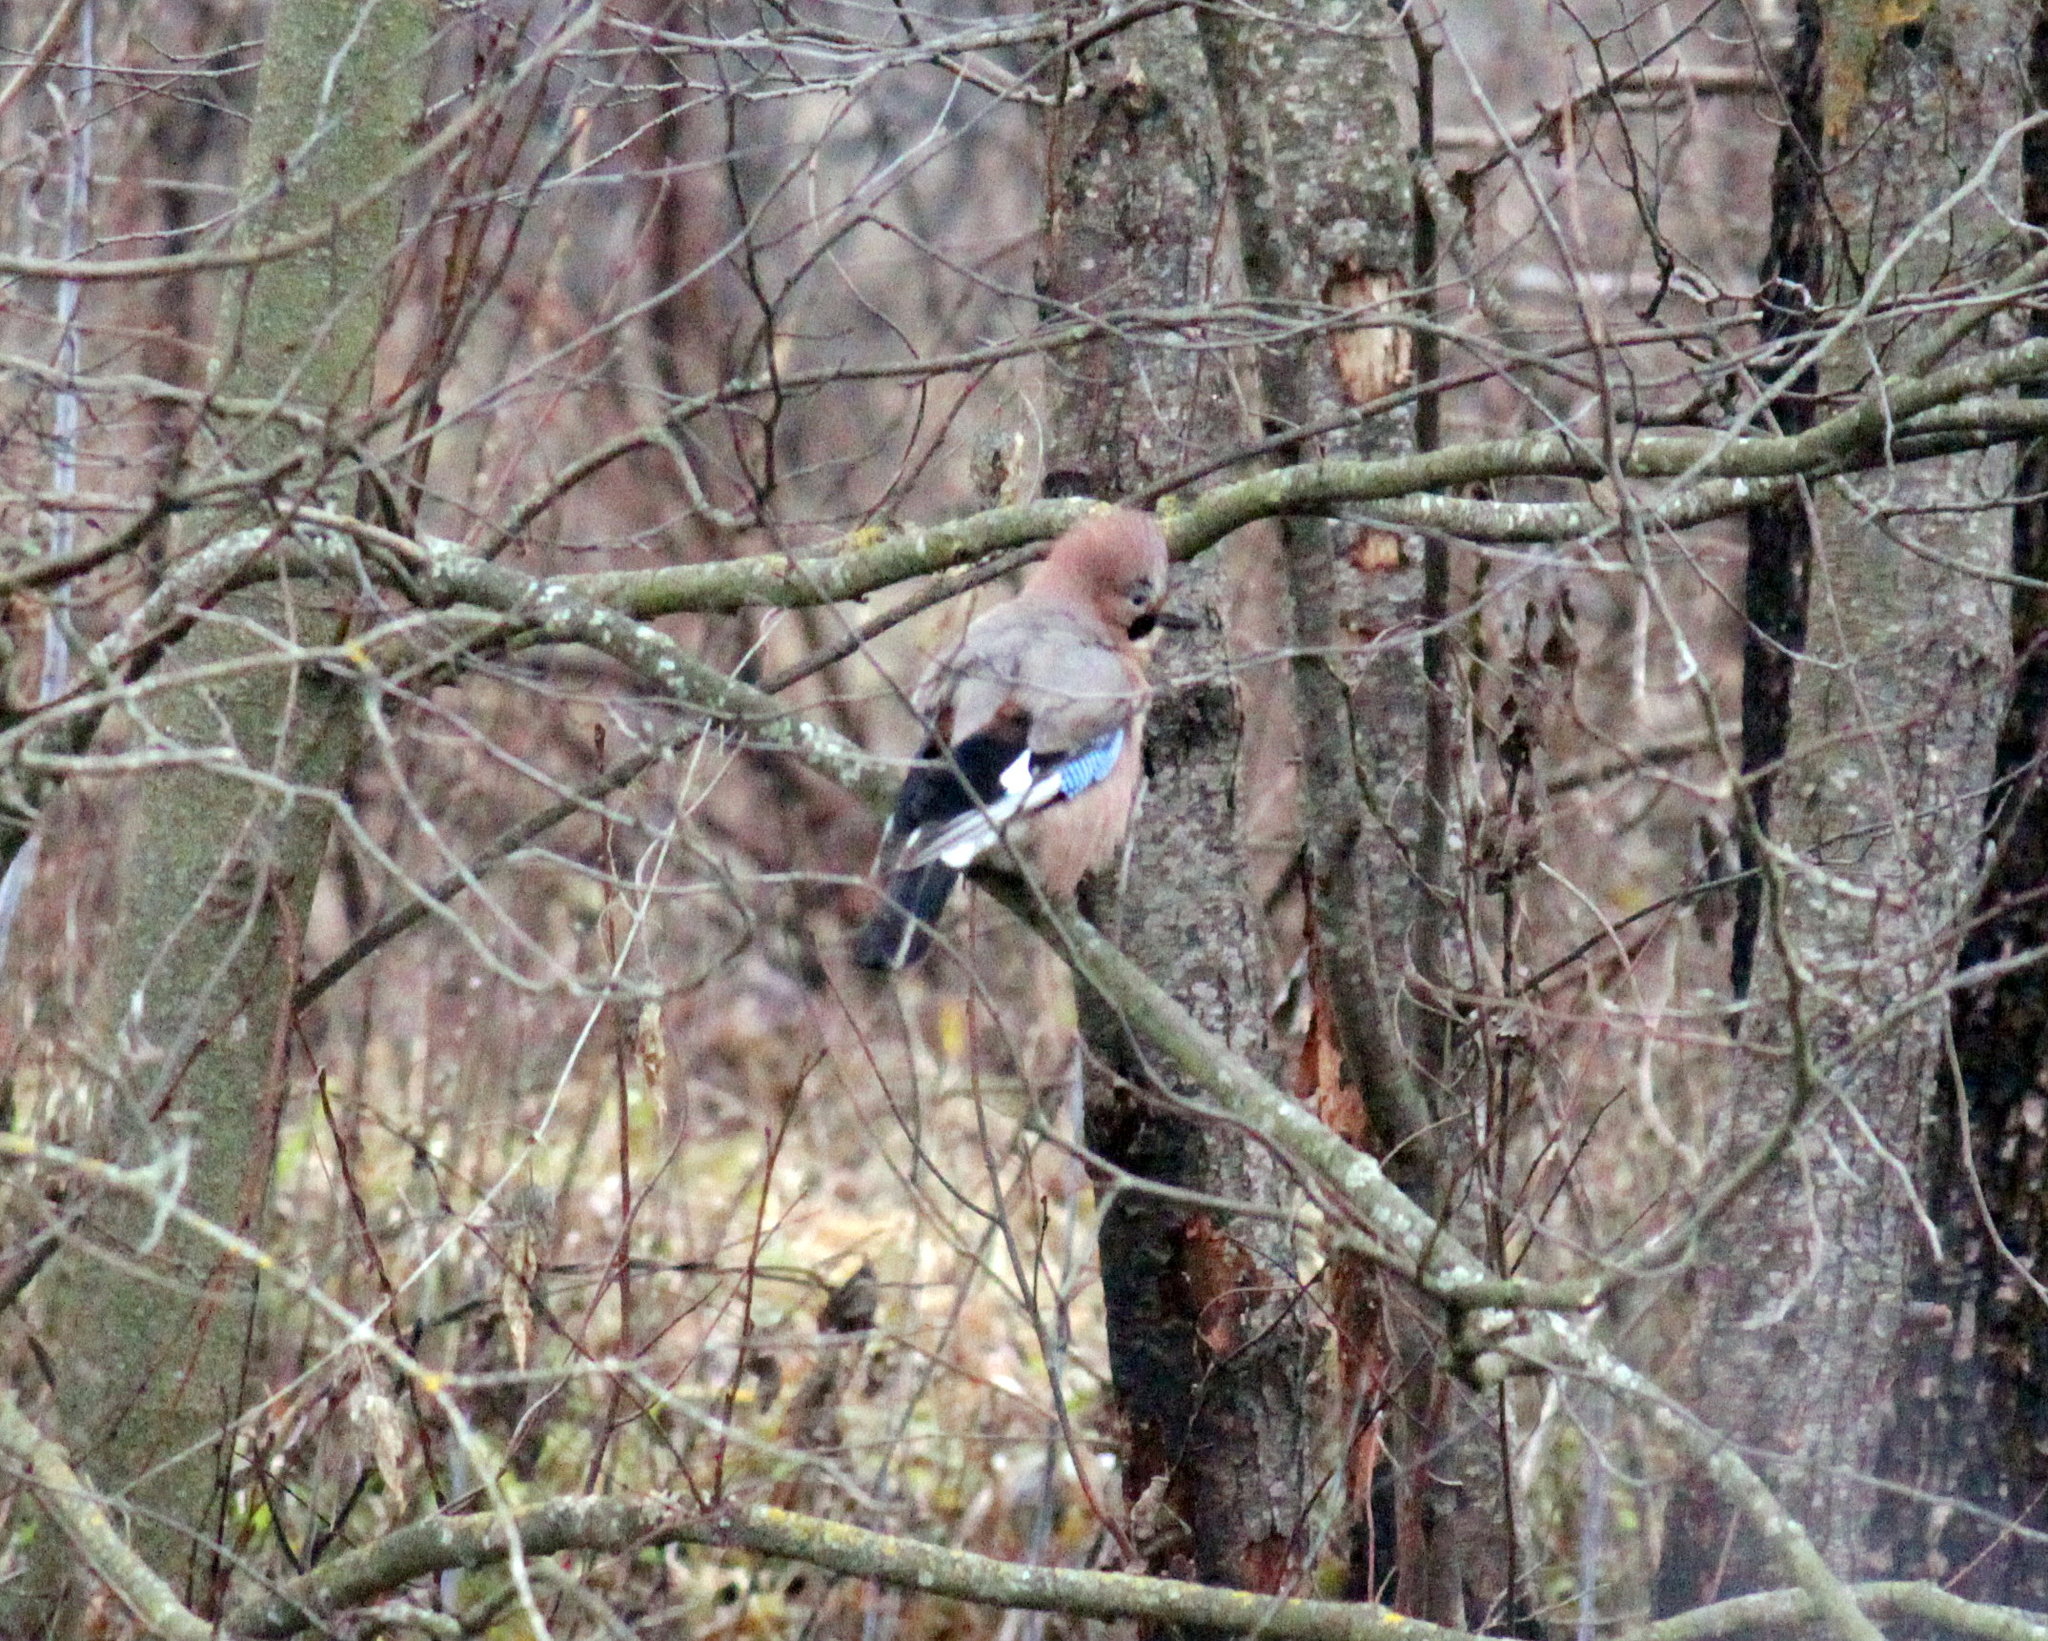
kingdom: Animalia
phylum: Chordata
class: Aves
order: Passeriformes
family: Corvidae
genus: Garrulus
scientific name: Garrulus glandarius
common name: Eurasian jay
